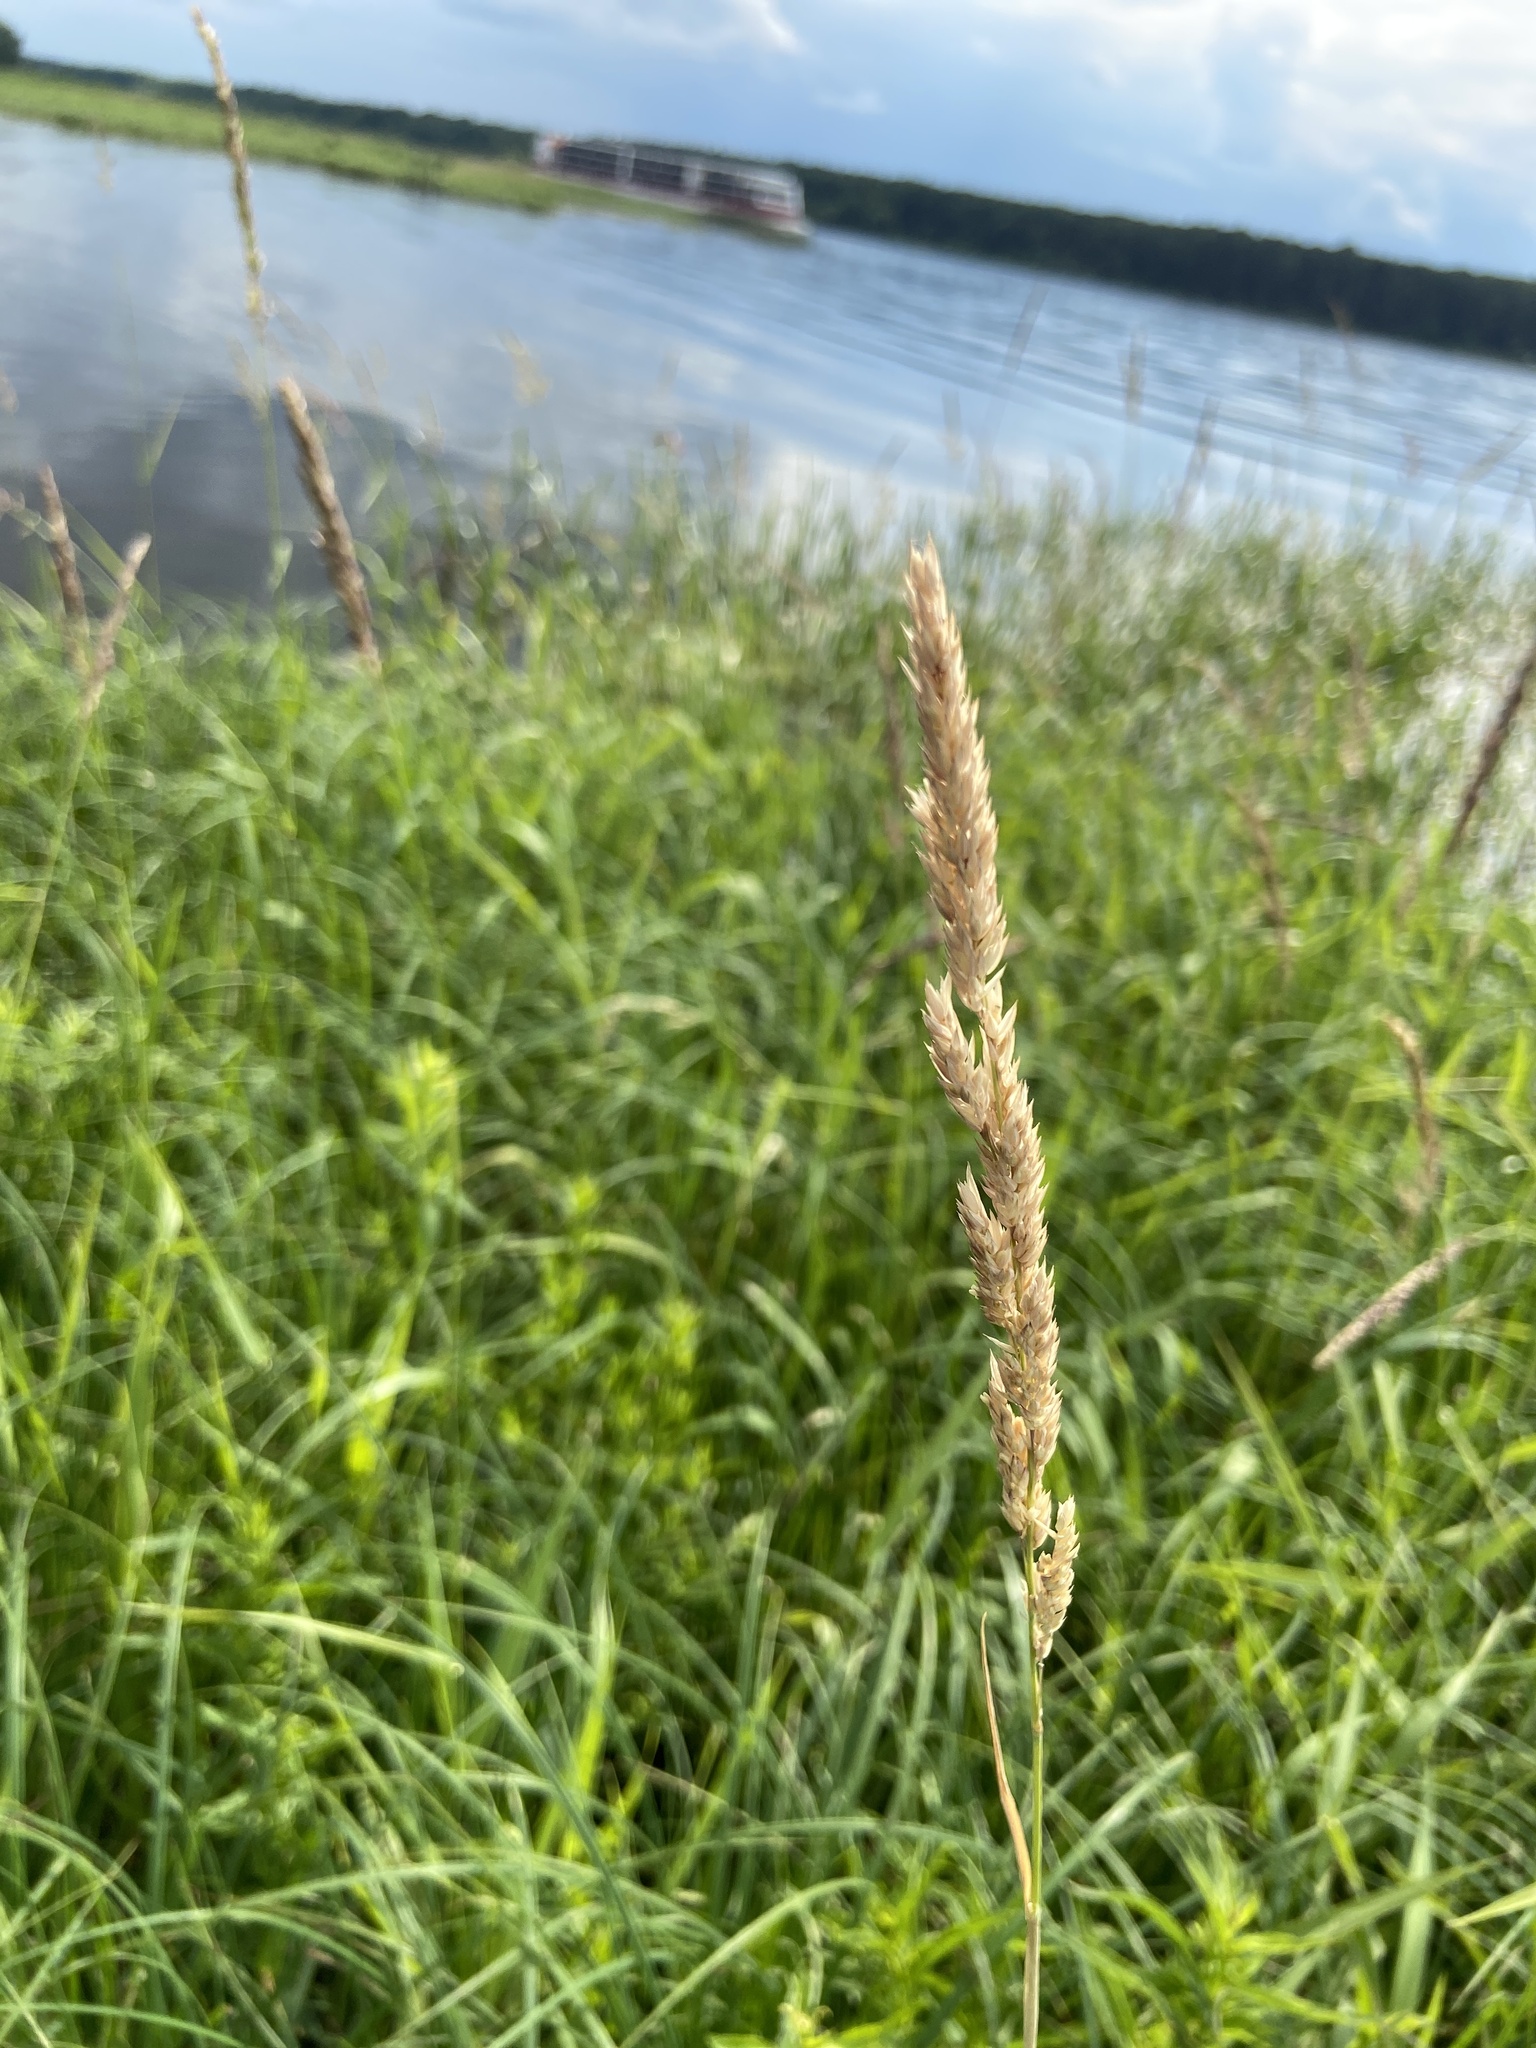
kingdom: Plantae
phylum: Tracheophyta
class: Liliopsida
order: Poales
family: Poaceae
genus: Phalaris
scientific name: Phalaris arundinacea
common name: Reed canary-grass
